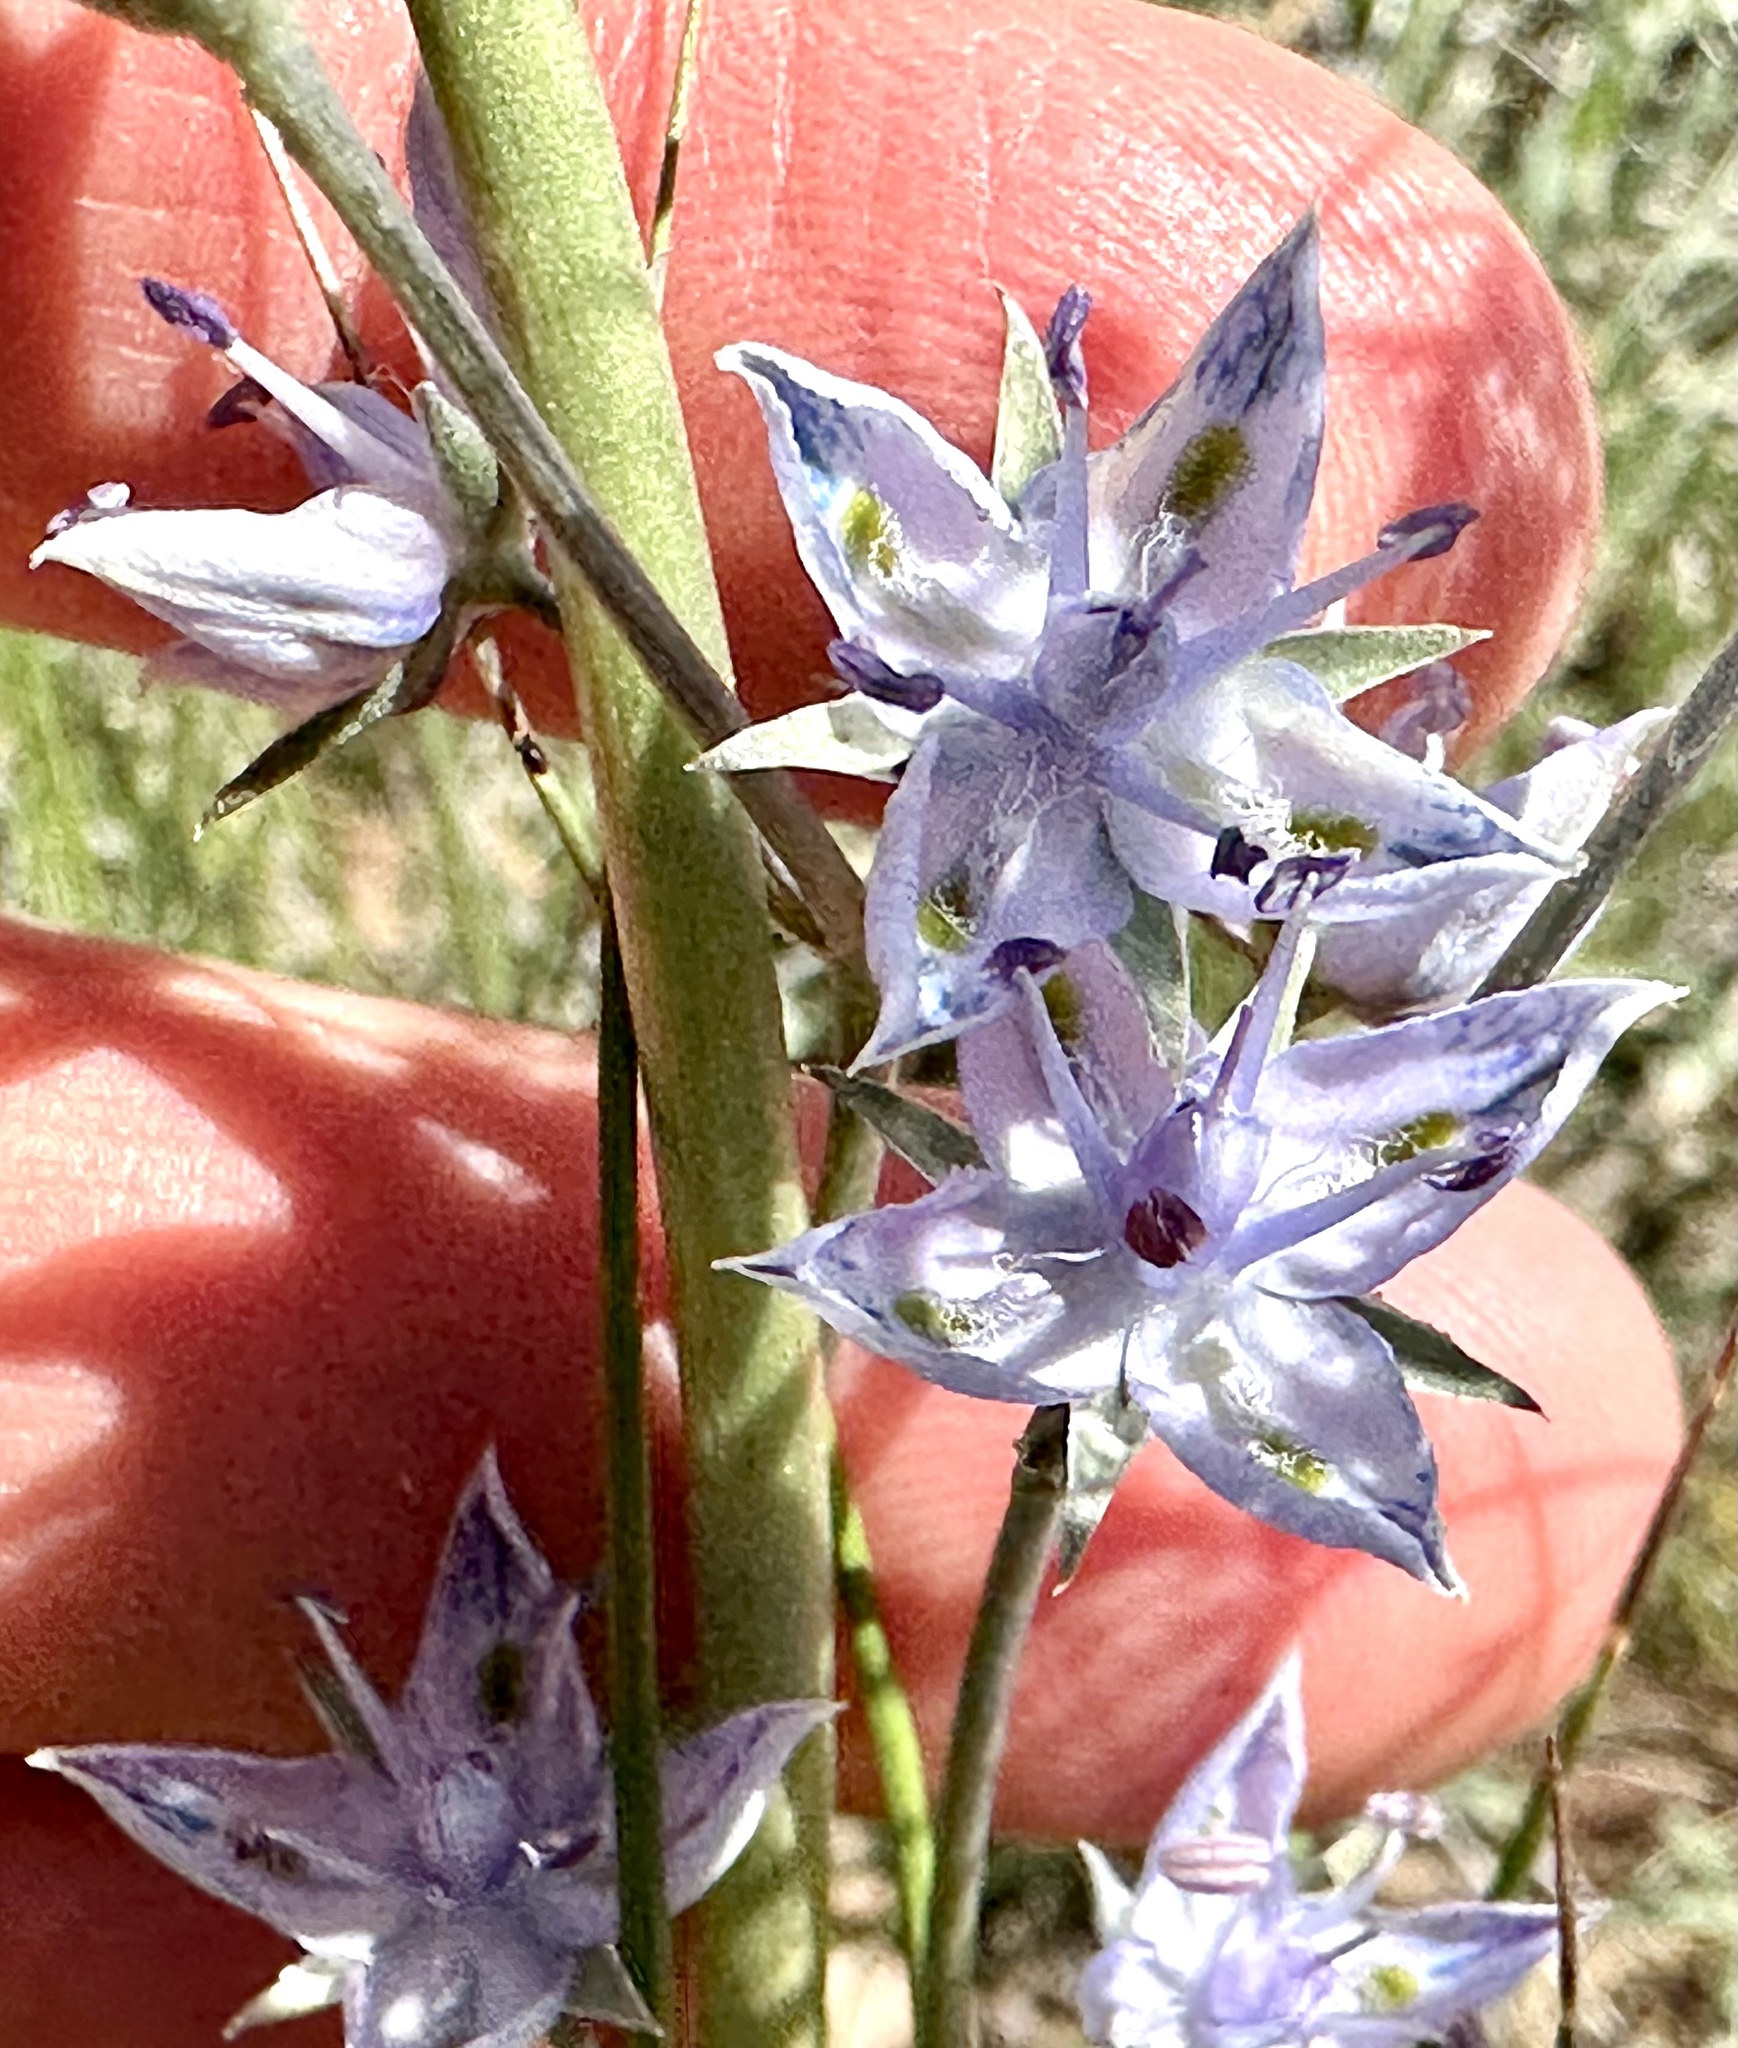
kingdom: Plantae
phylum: Tracheophyta
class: Magnoliopsida
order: Gentianales
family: Gentianaceae
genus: Frasera
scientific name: Frasera albicaulis
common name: Cusick's frasera
